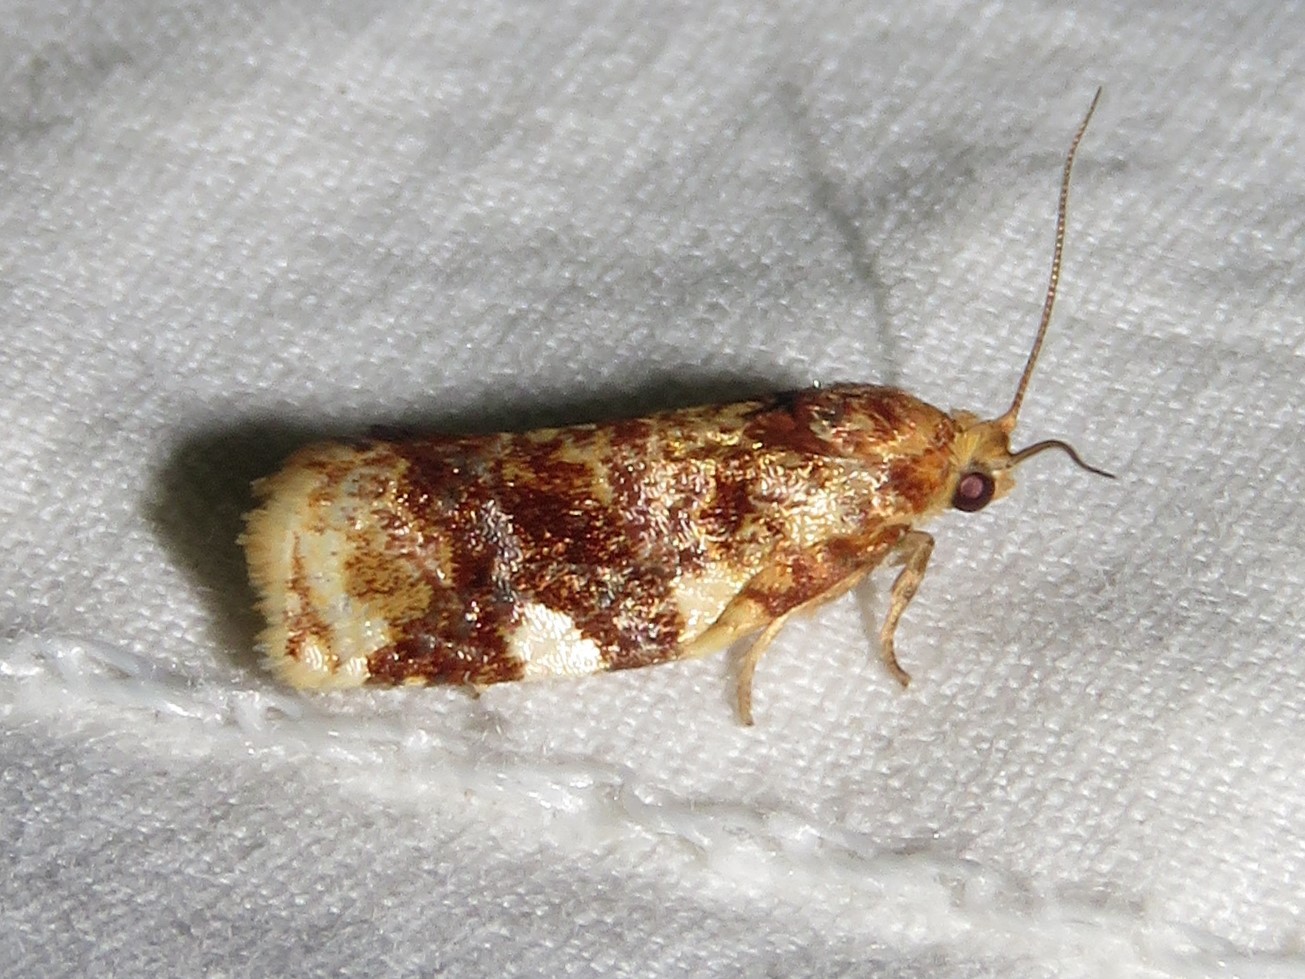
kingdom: Animalia
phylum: Arthropoda
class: Insecta
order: Lepidoptera
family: Tortricidae
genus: Archips
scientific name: Archips argyrospila
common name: Fruit-tree leafroller moth
